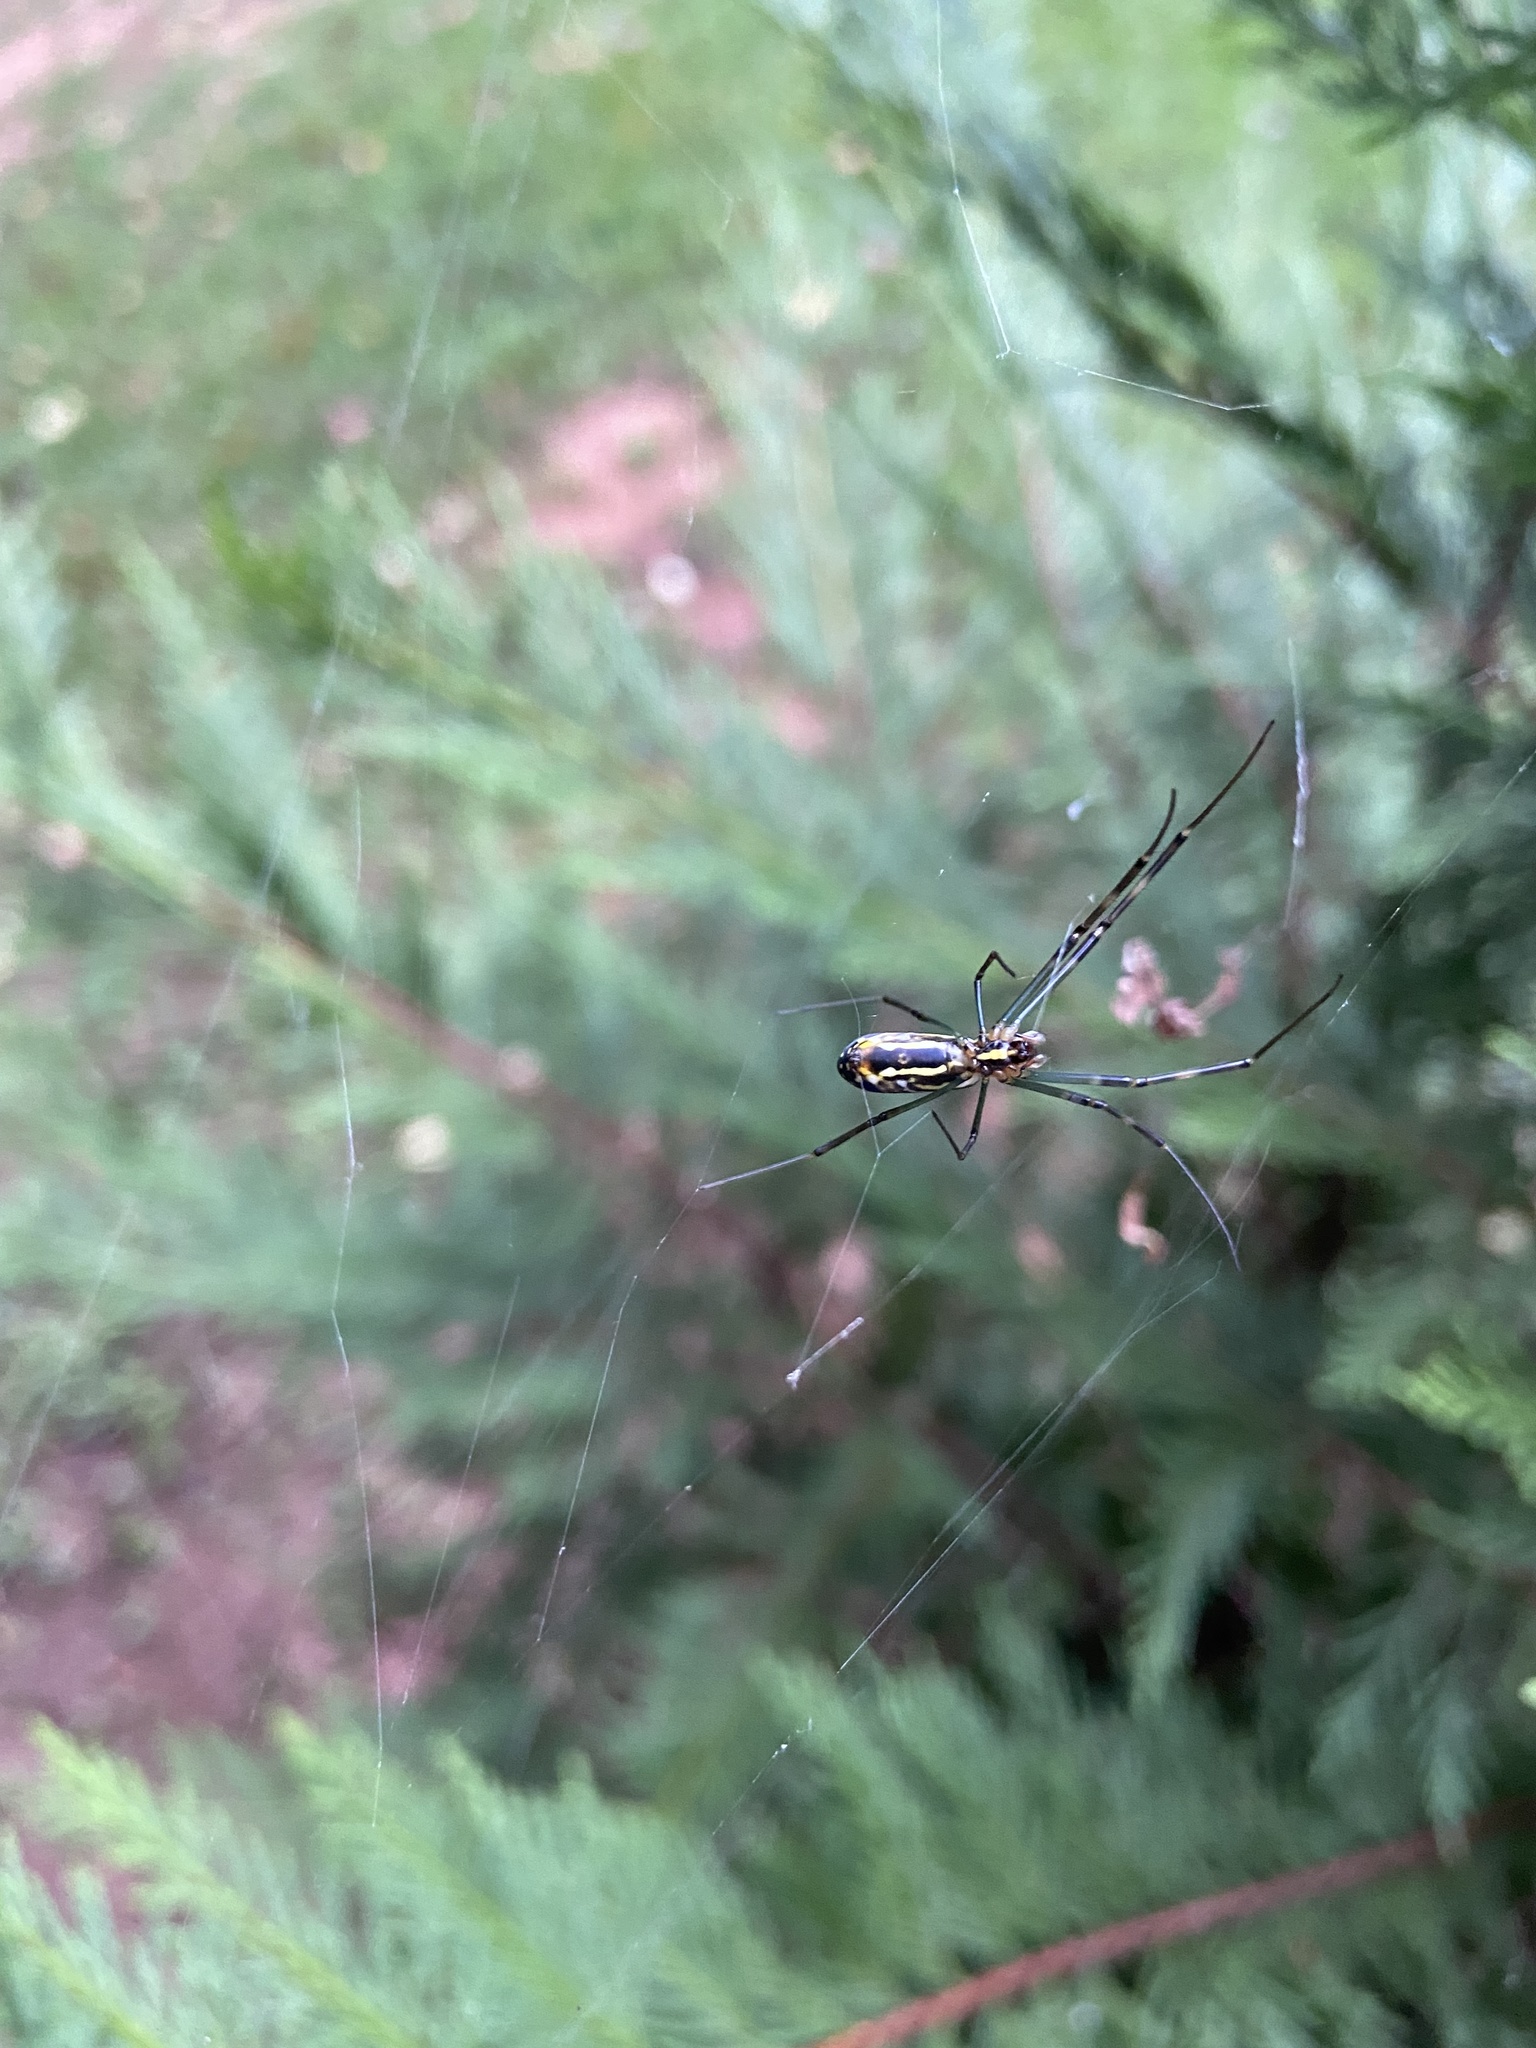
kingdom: Animalia
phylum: Arthropoda
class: Arachnida
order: Araneae
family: Araneidae
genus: Trichonephila
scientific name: Trichonephila clavata
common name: Jorō spider
